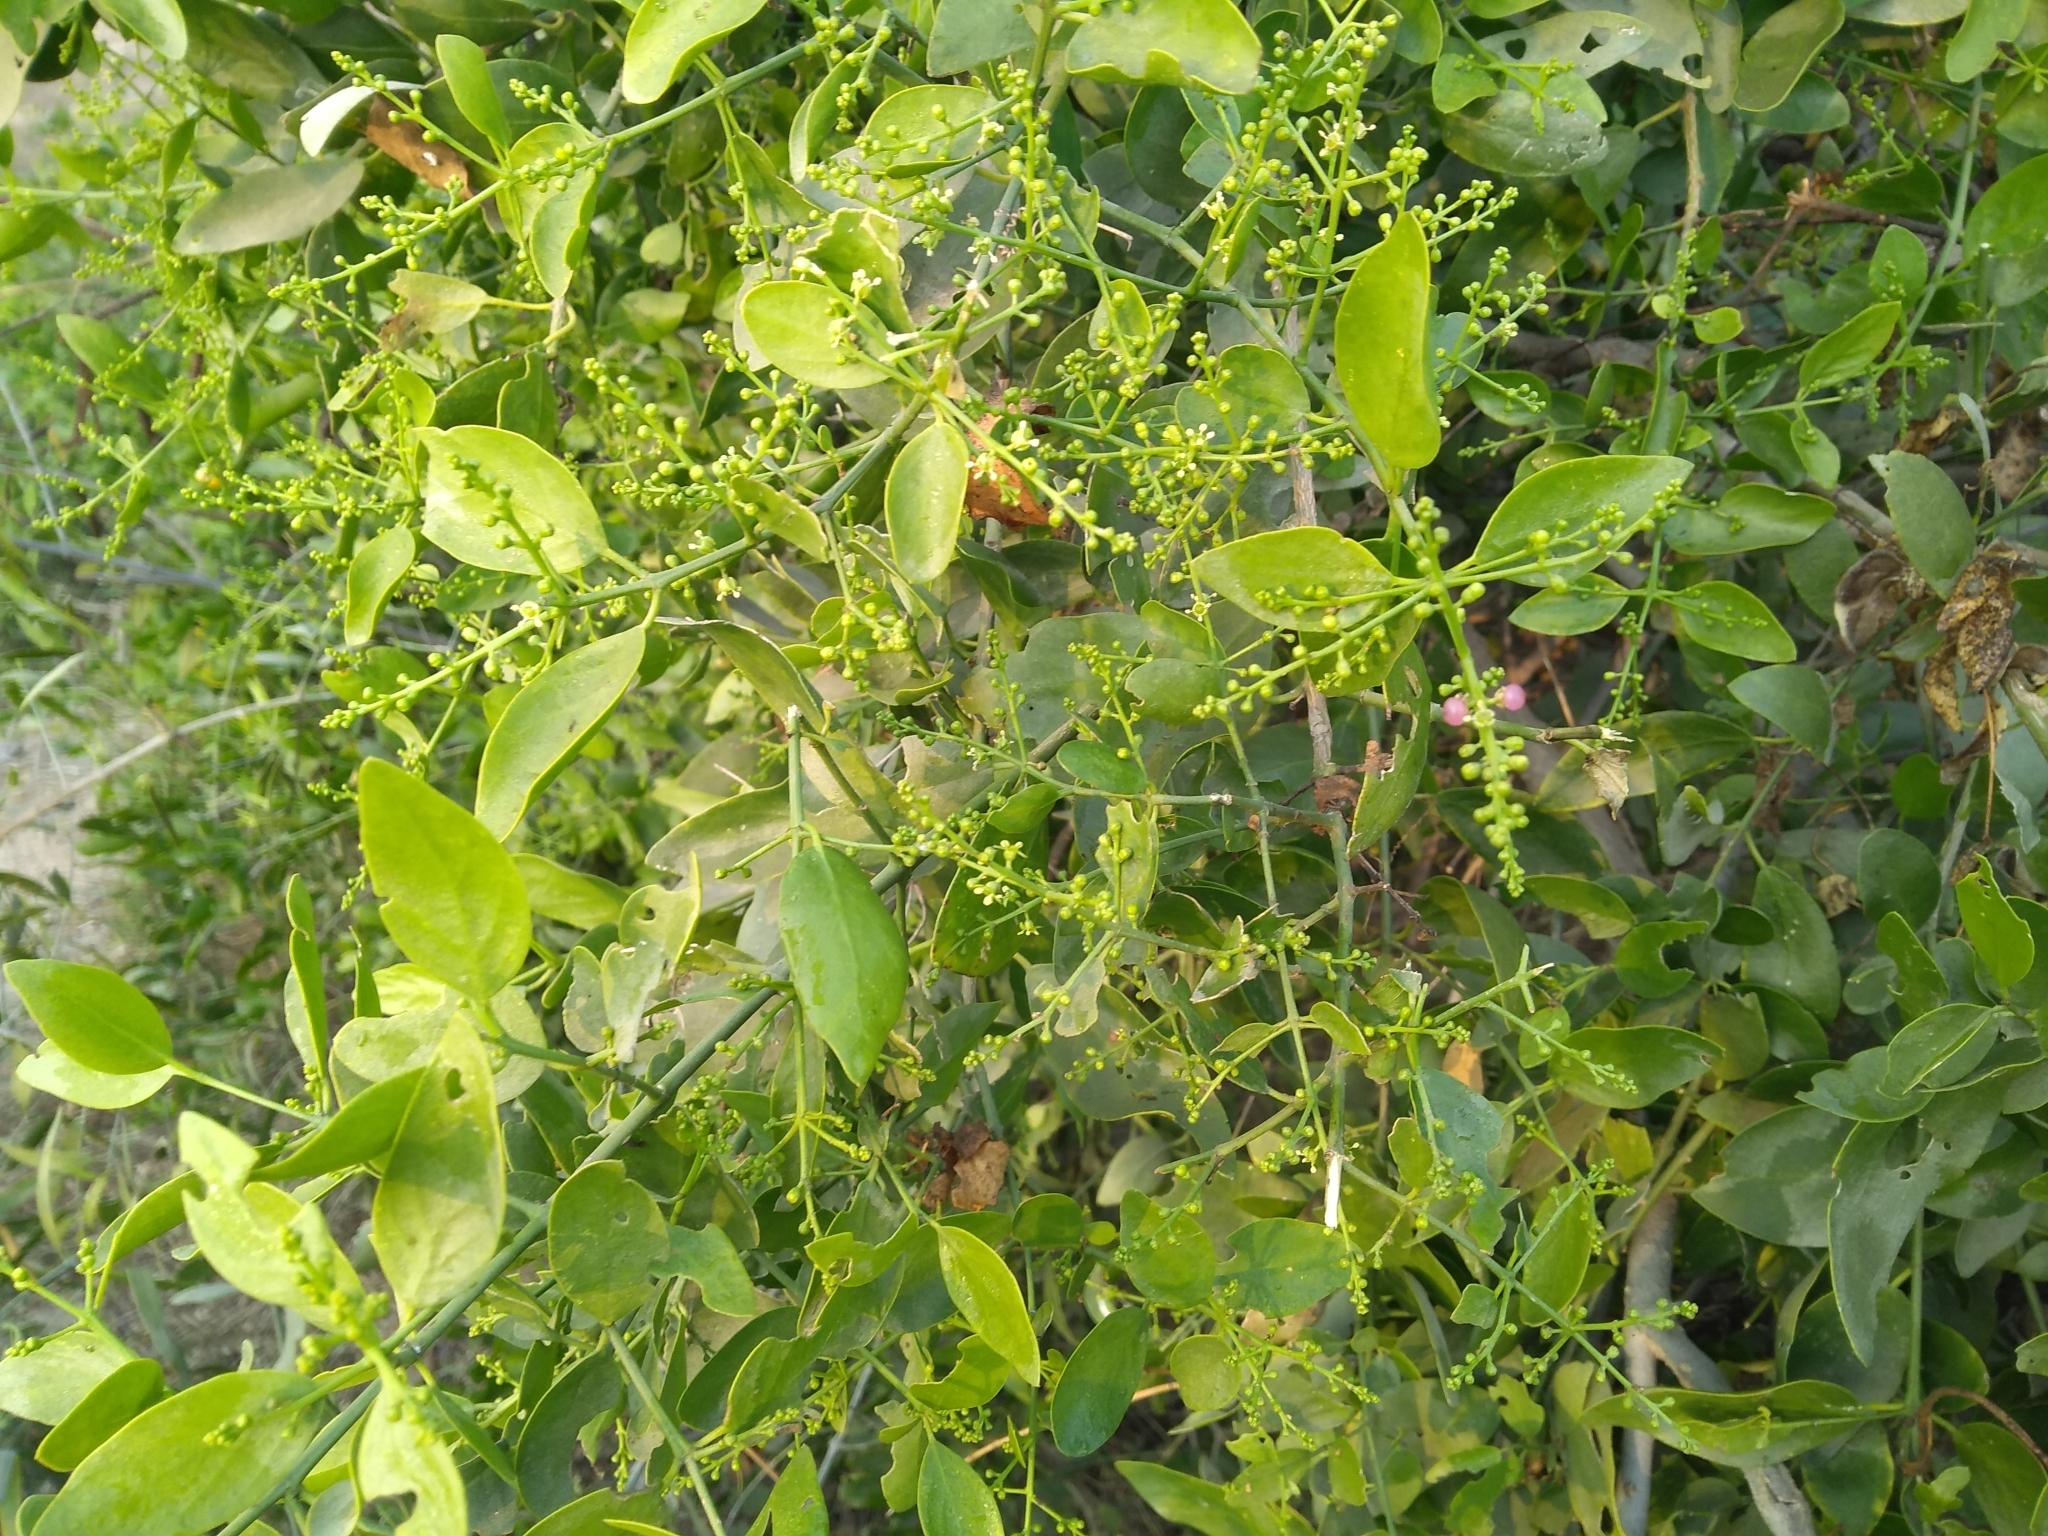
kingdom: Plantae
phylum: Tracheophyta
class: Magnoliopsida
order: Brassicales
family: Salvadoraceae
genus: Salvadora
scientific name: Salvadora persica
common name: Toothbrushtree
